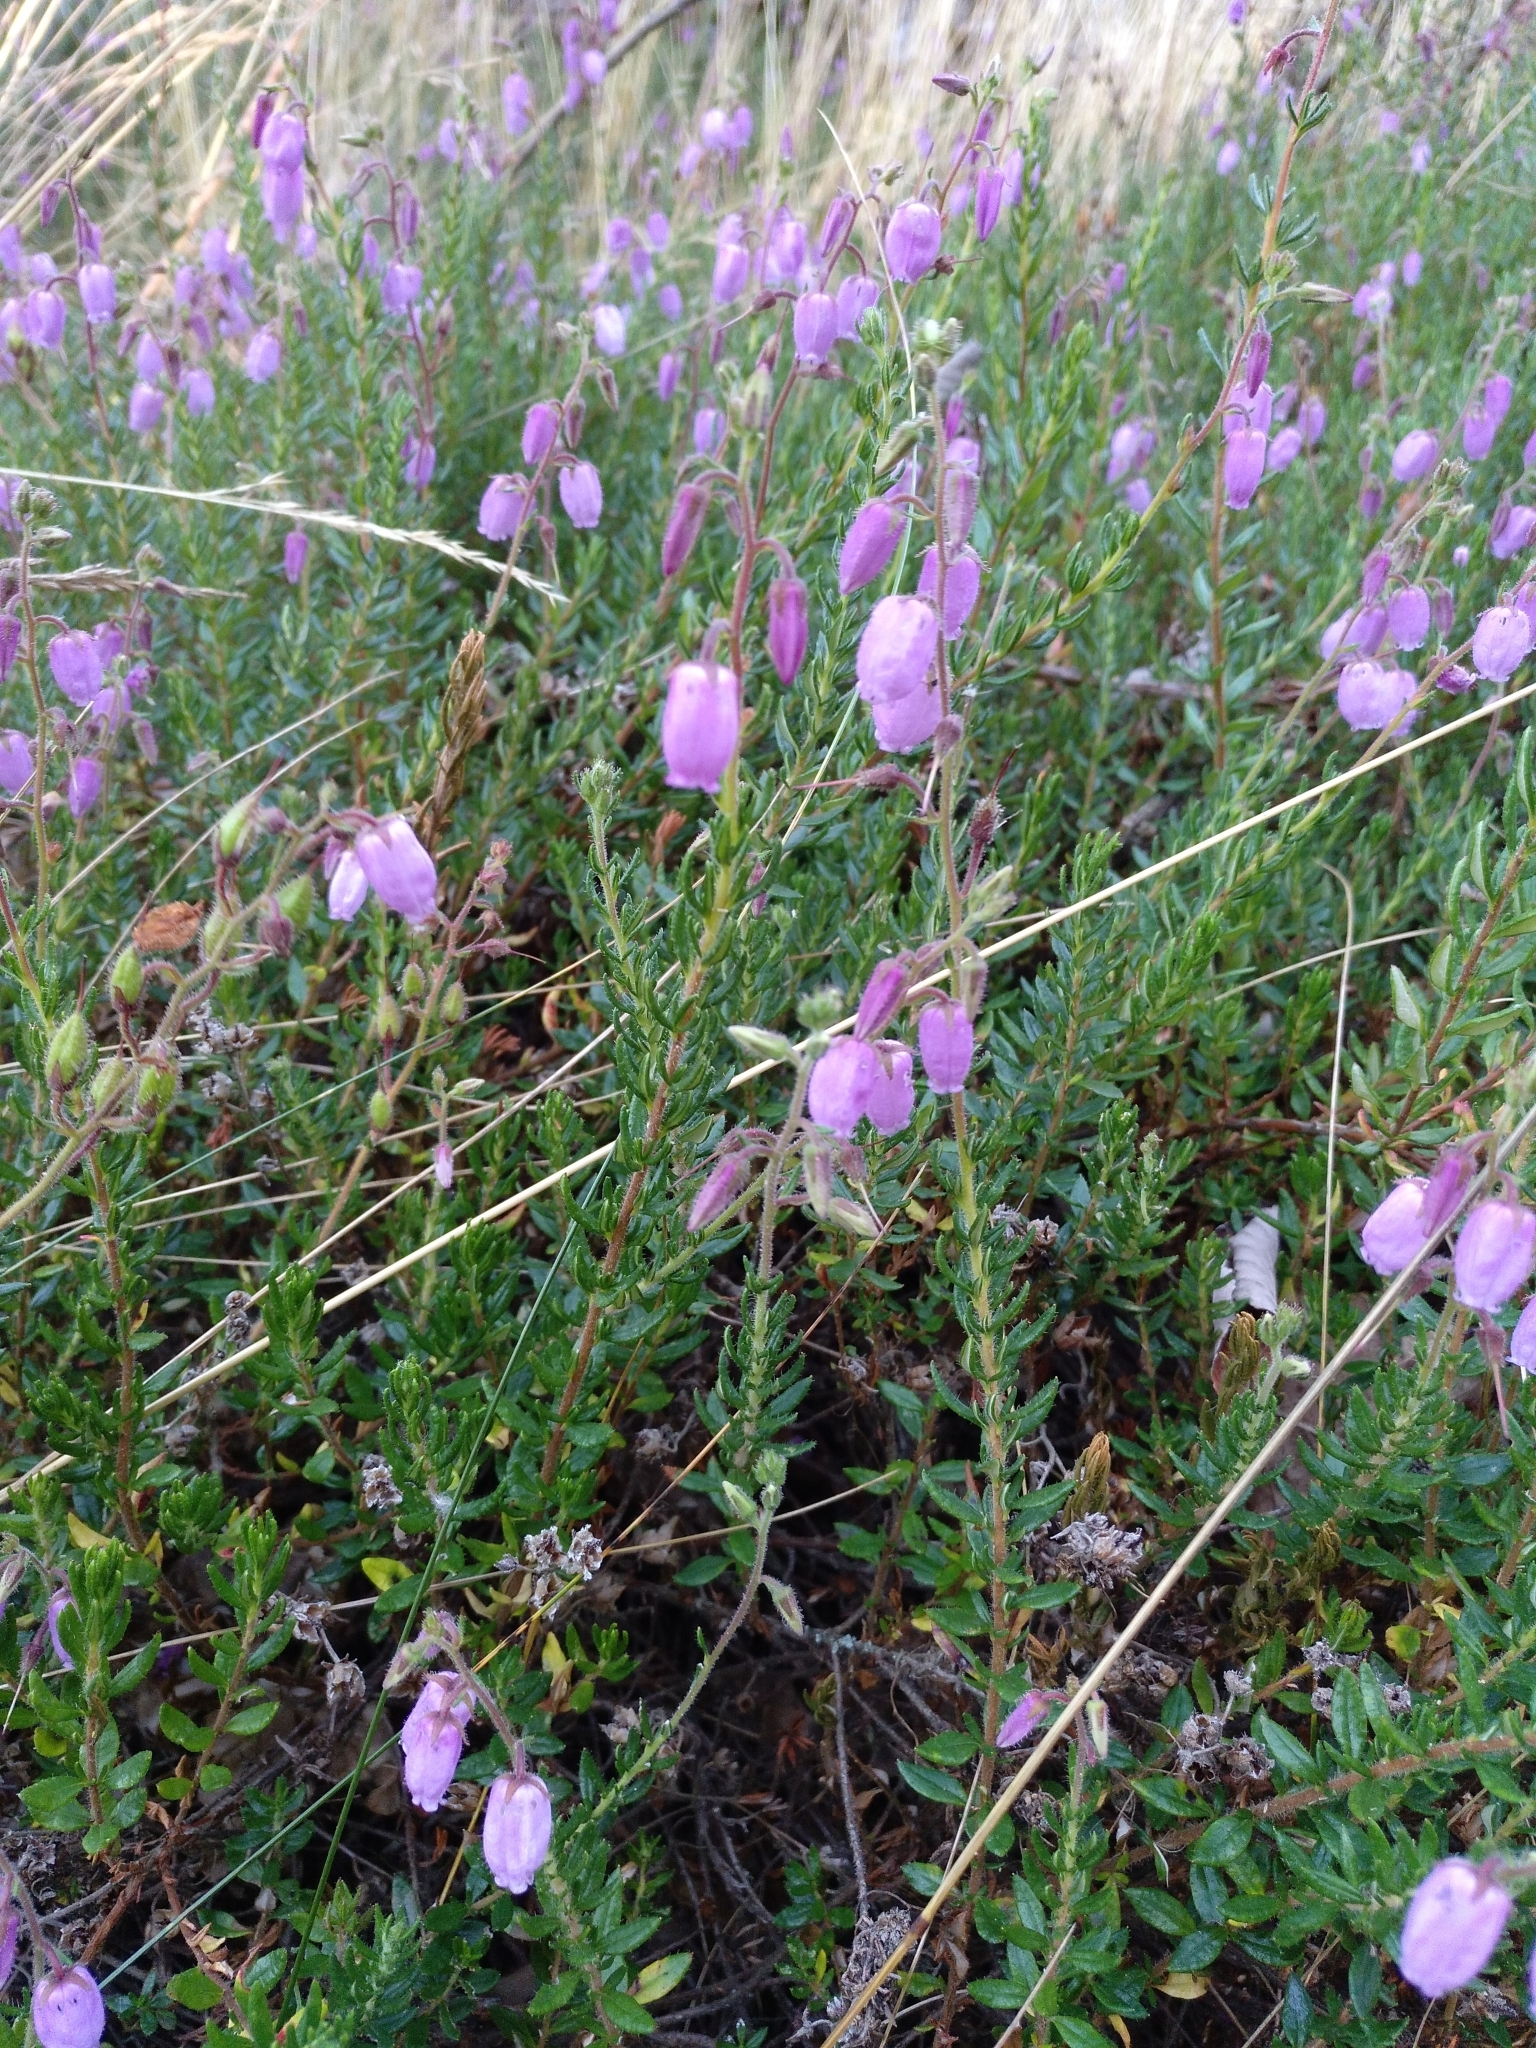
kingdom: Plantae
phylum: Tracheophyta
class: Magnoliopsida
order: Ericales
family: Ericaceae
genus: Daboecia
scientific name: Daboecia cantabrica
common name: St. dabeoc's-heath
